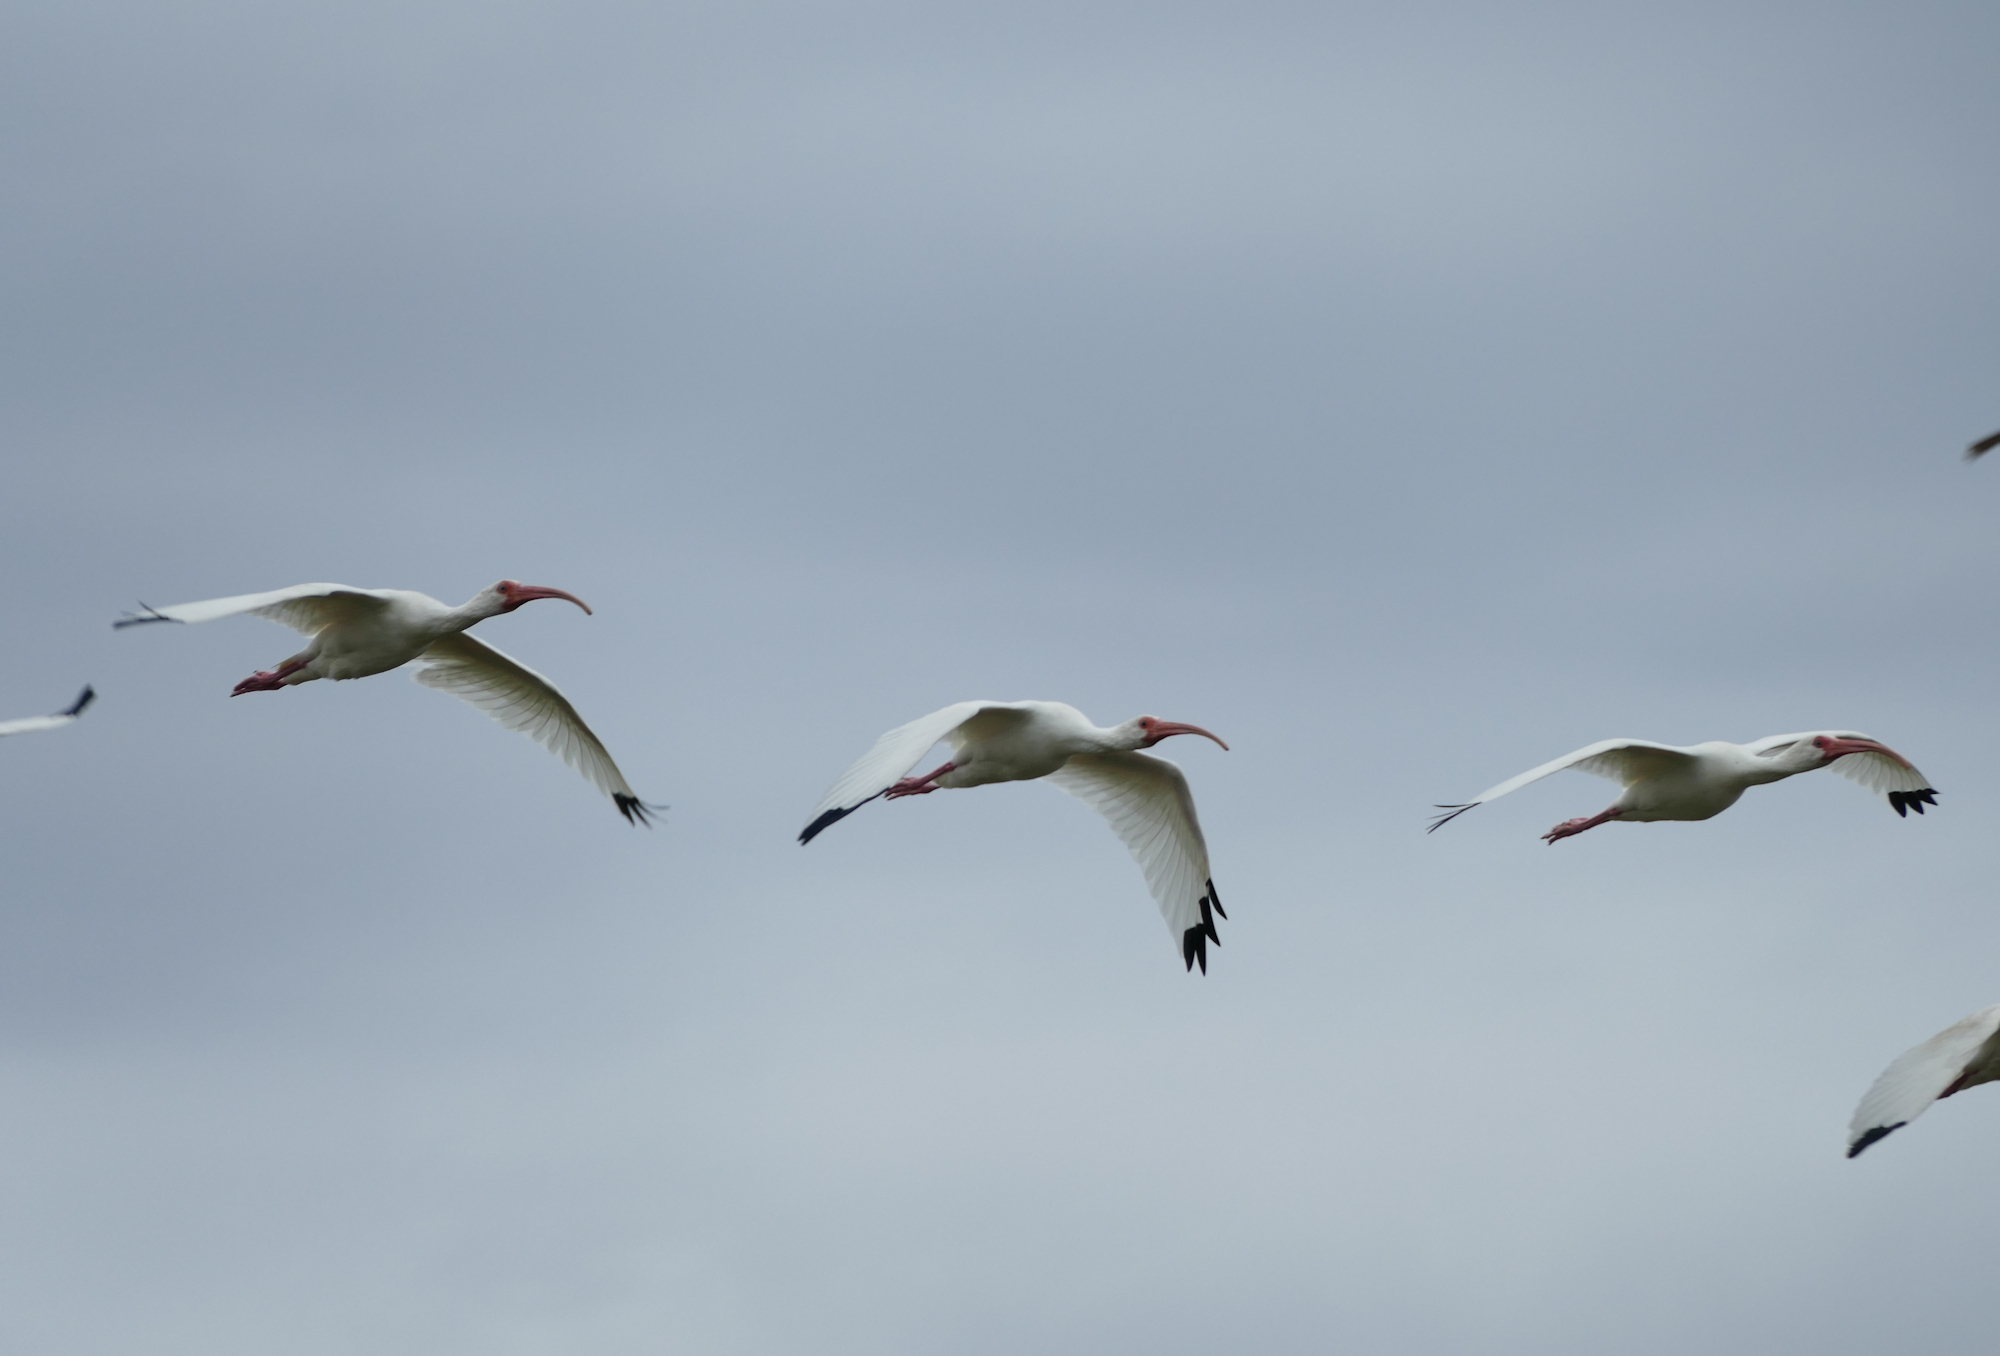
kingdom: Animalia
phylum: Chordata
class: Aves
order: Pelecaniformes
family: Threskiornithidae
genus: Eudocimus
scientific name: Eudocimus albus
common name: White ibis
